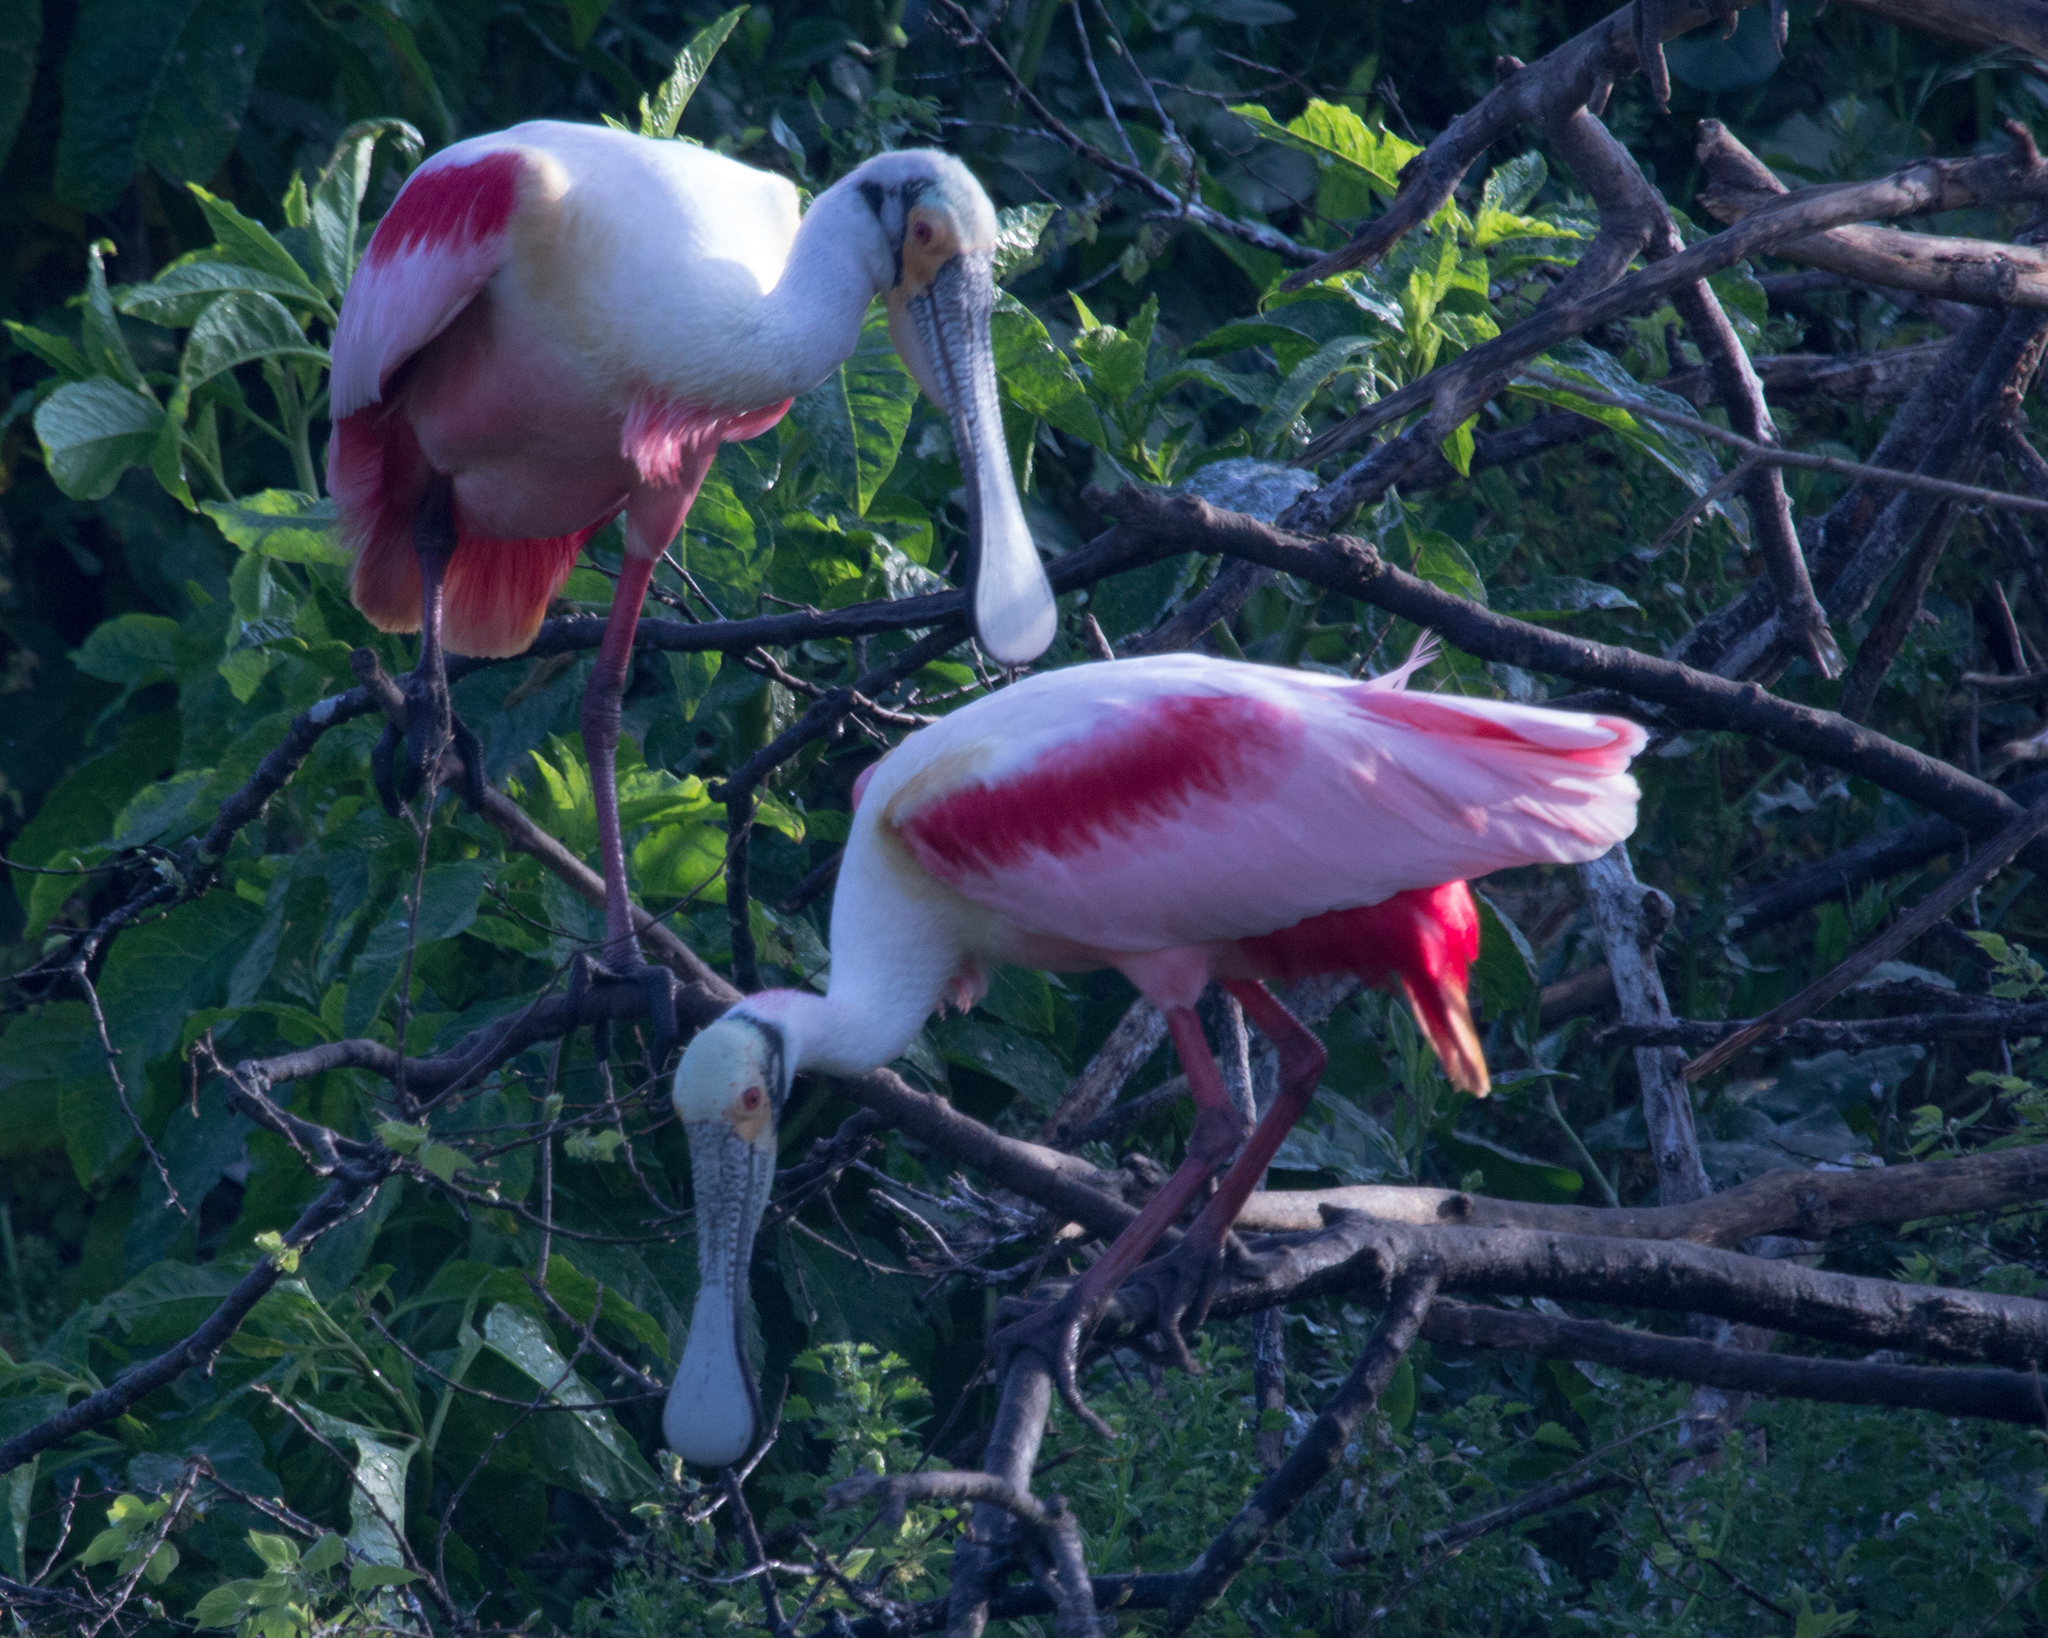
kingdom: Animalia
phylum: Chordata
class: Aves
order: Pelecaniformes
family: Threskiornithidae
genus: Platalea
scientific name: Platalea ajaja
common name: Roseate spoonbill
